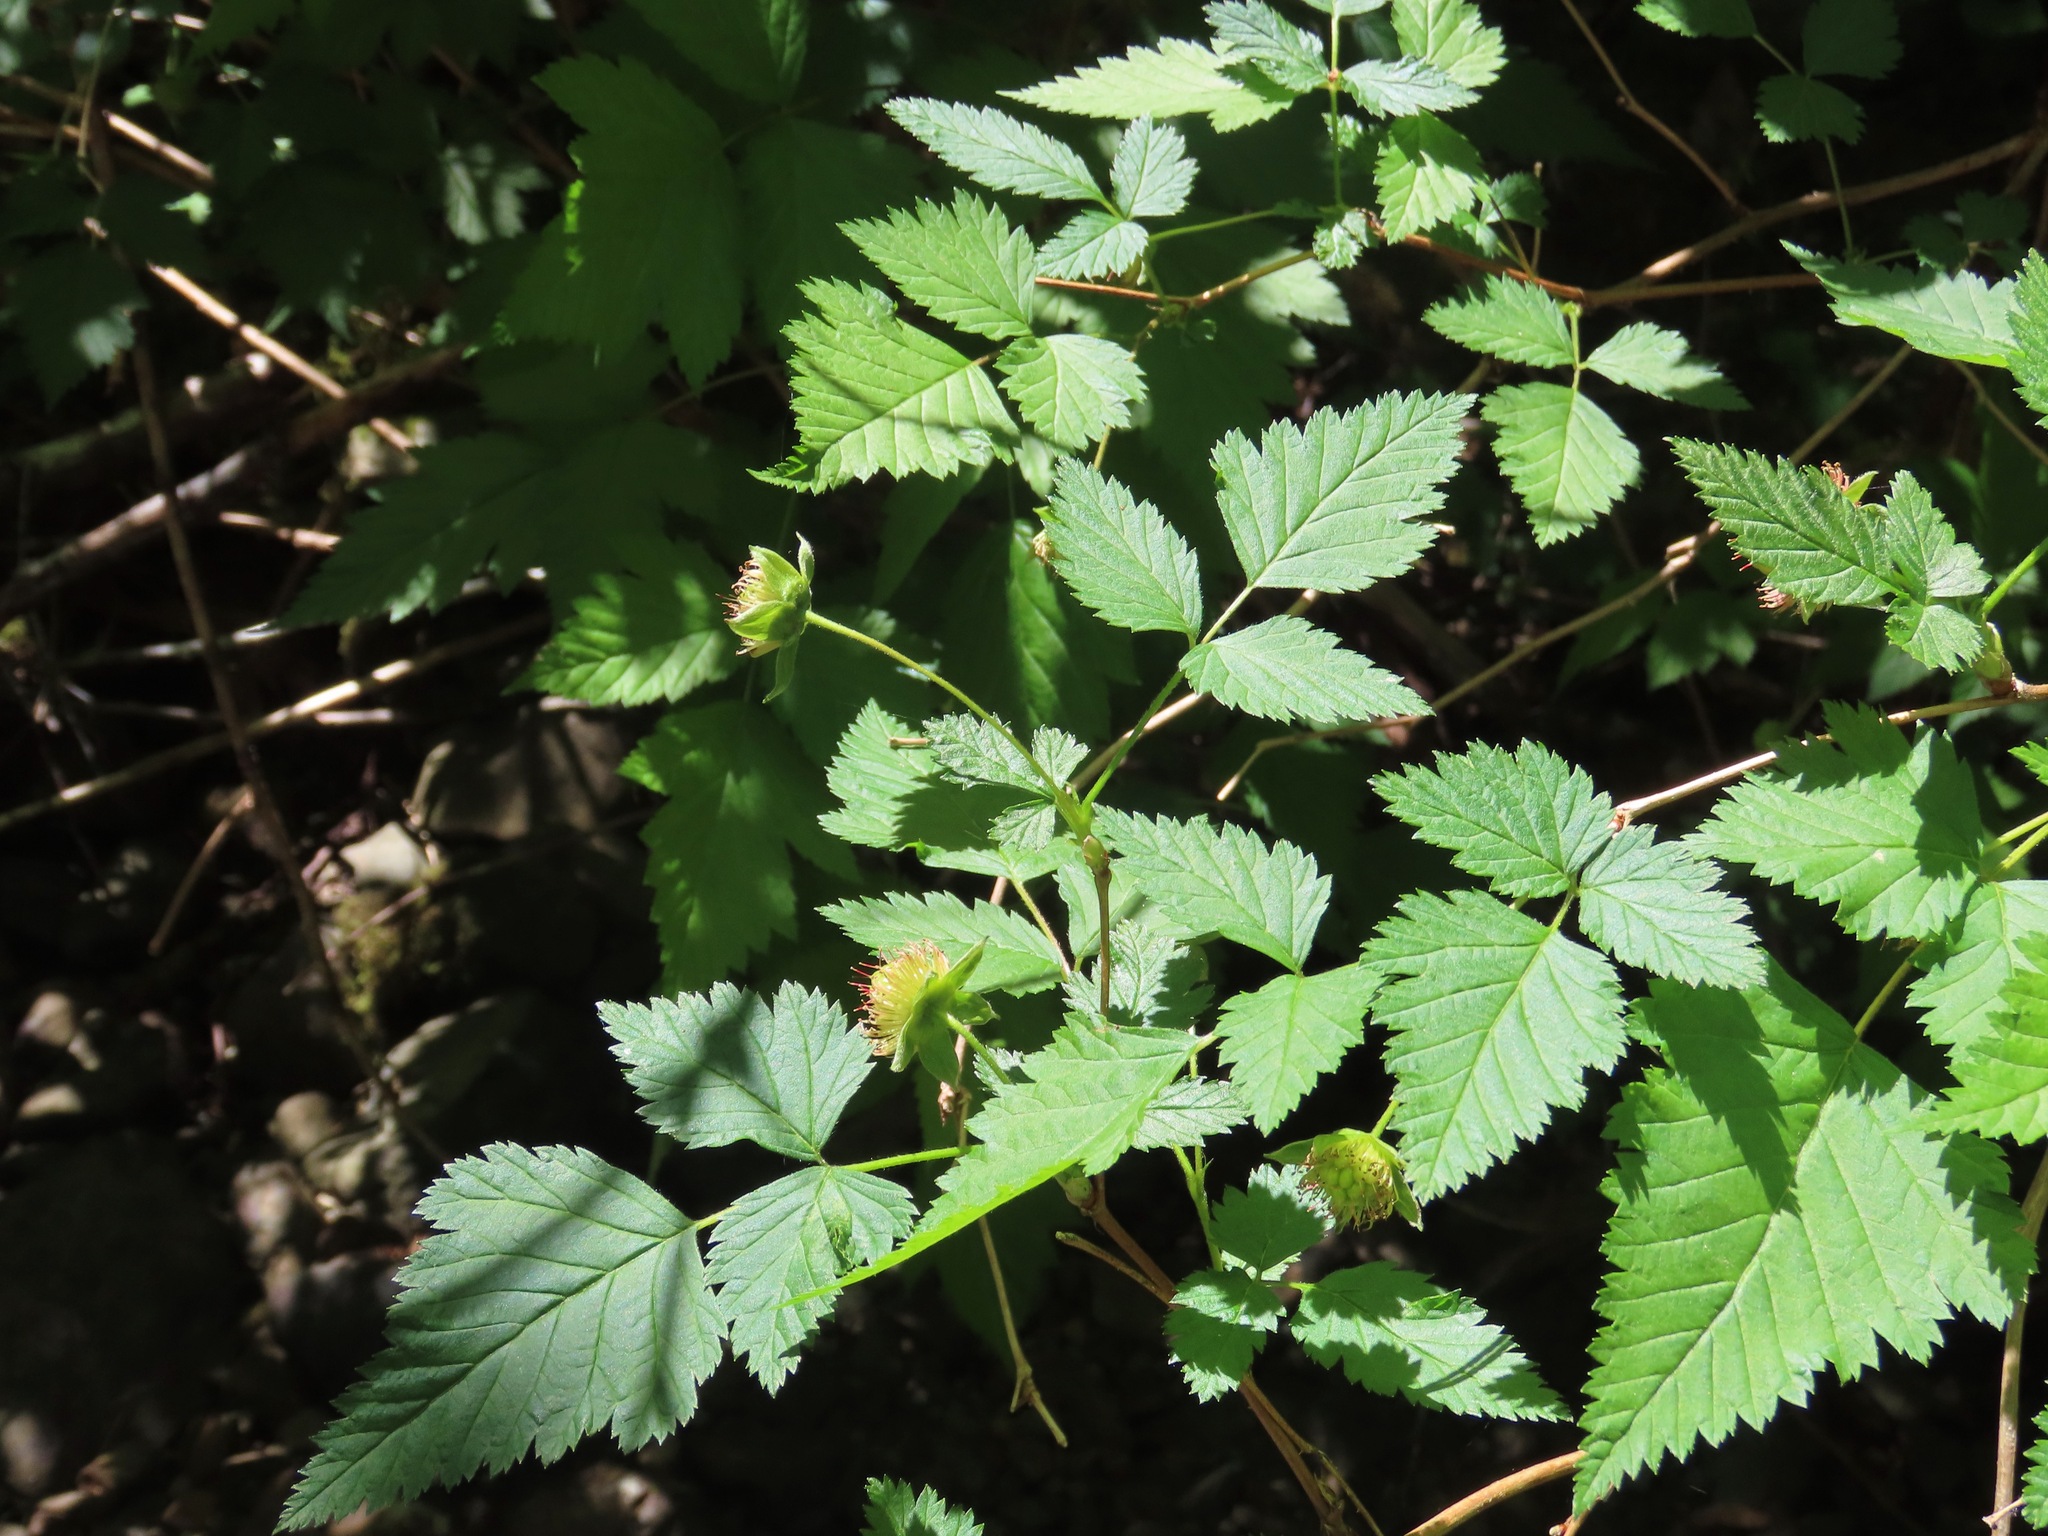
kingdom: Plantae
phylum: Tracheophyta
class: Magnoliopsida
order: Rosales
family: Rosaceae
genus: Rubus
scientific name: Rubus spectabilis
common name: Salmonberry
